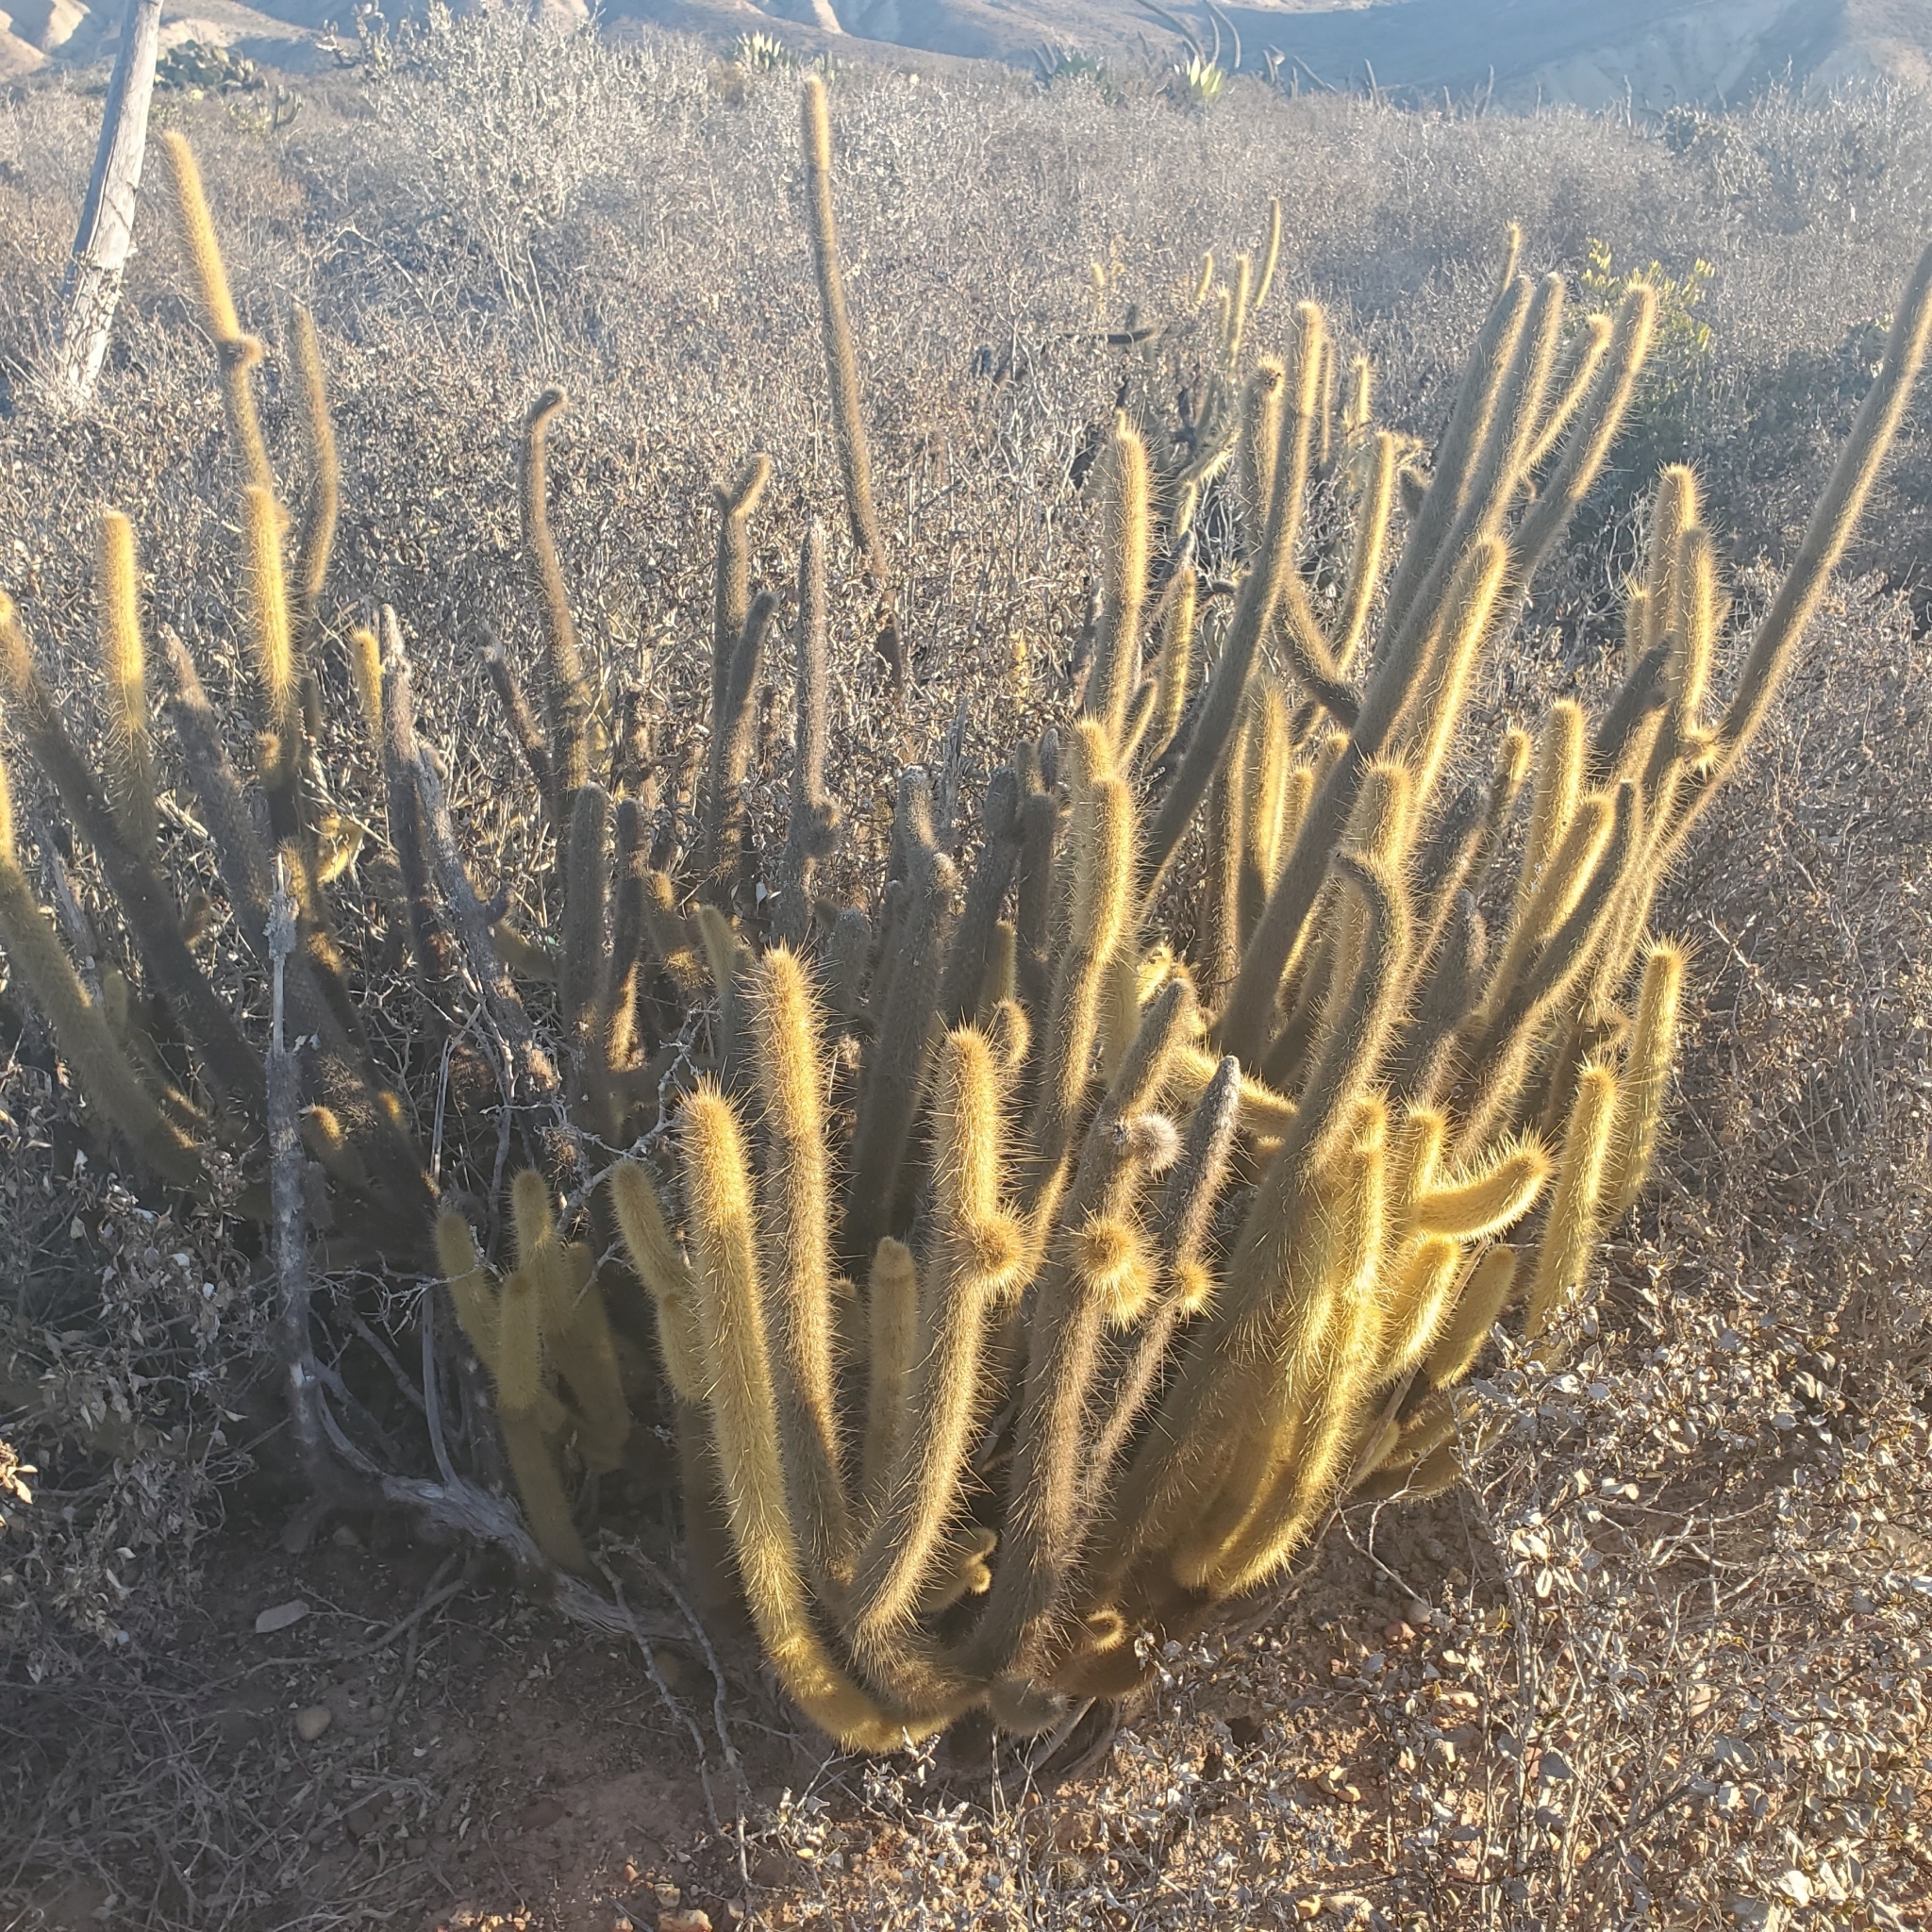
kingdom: Plantae
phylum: Tracheophyta
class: Magnoliopsida
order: Caryophyllales
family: Cactaceae
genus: Bergerocactus
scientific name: Bergerocactus emoryi
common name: Golden snakecactus
